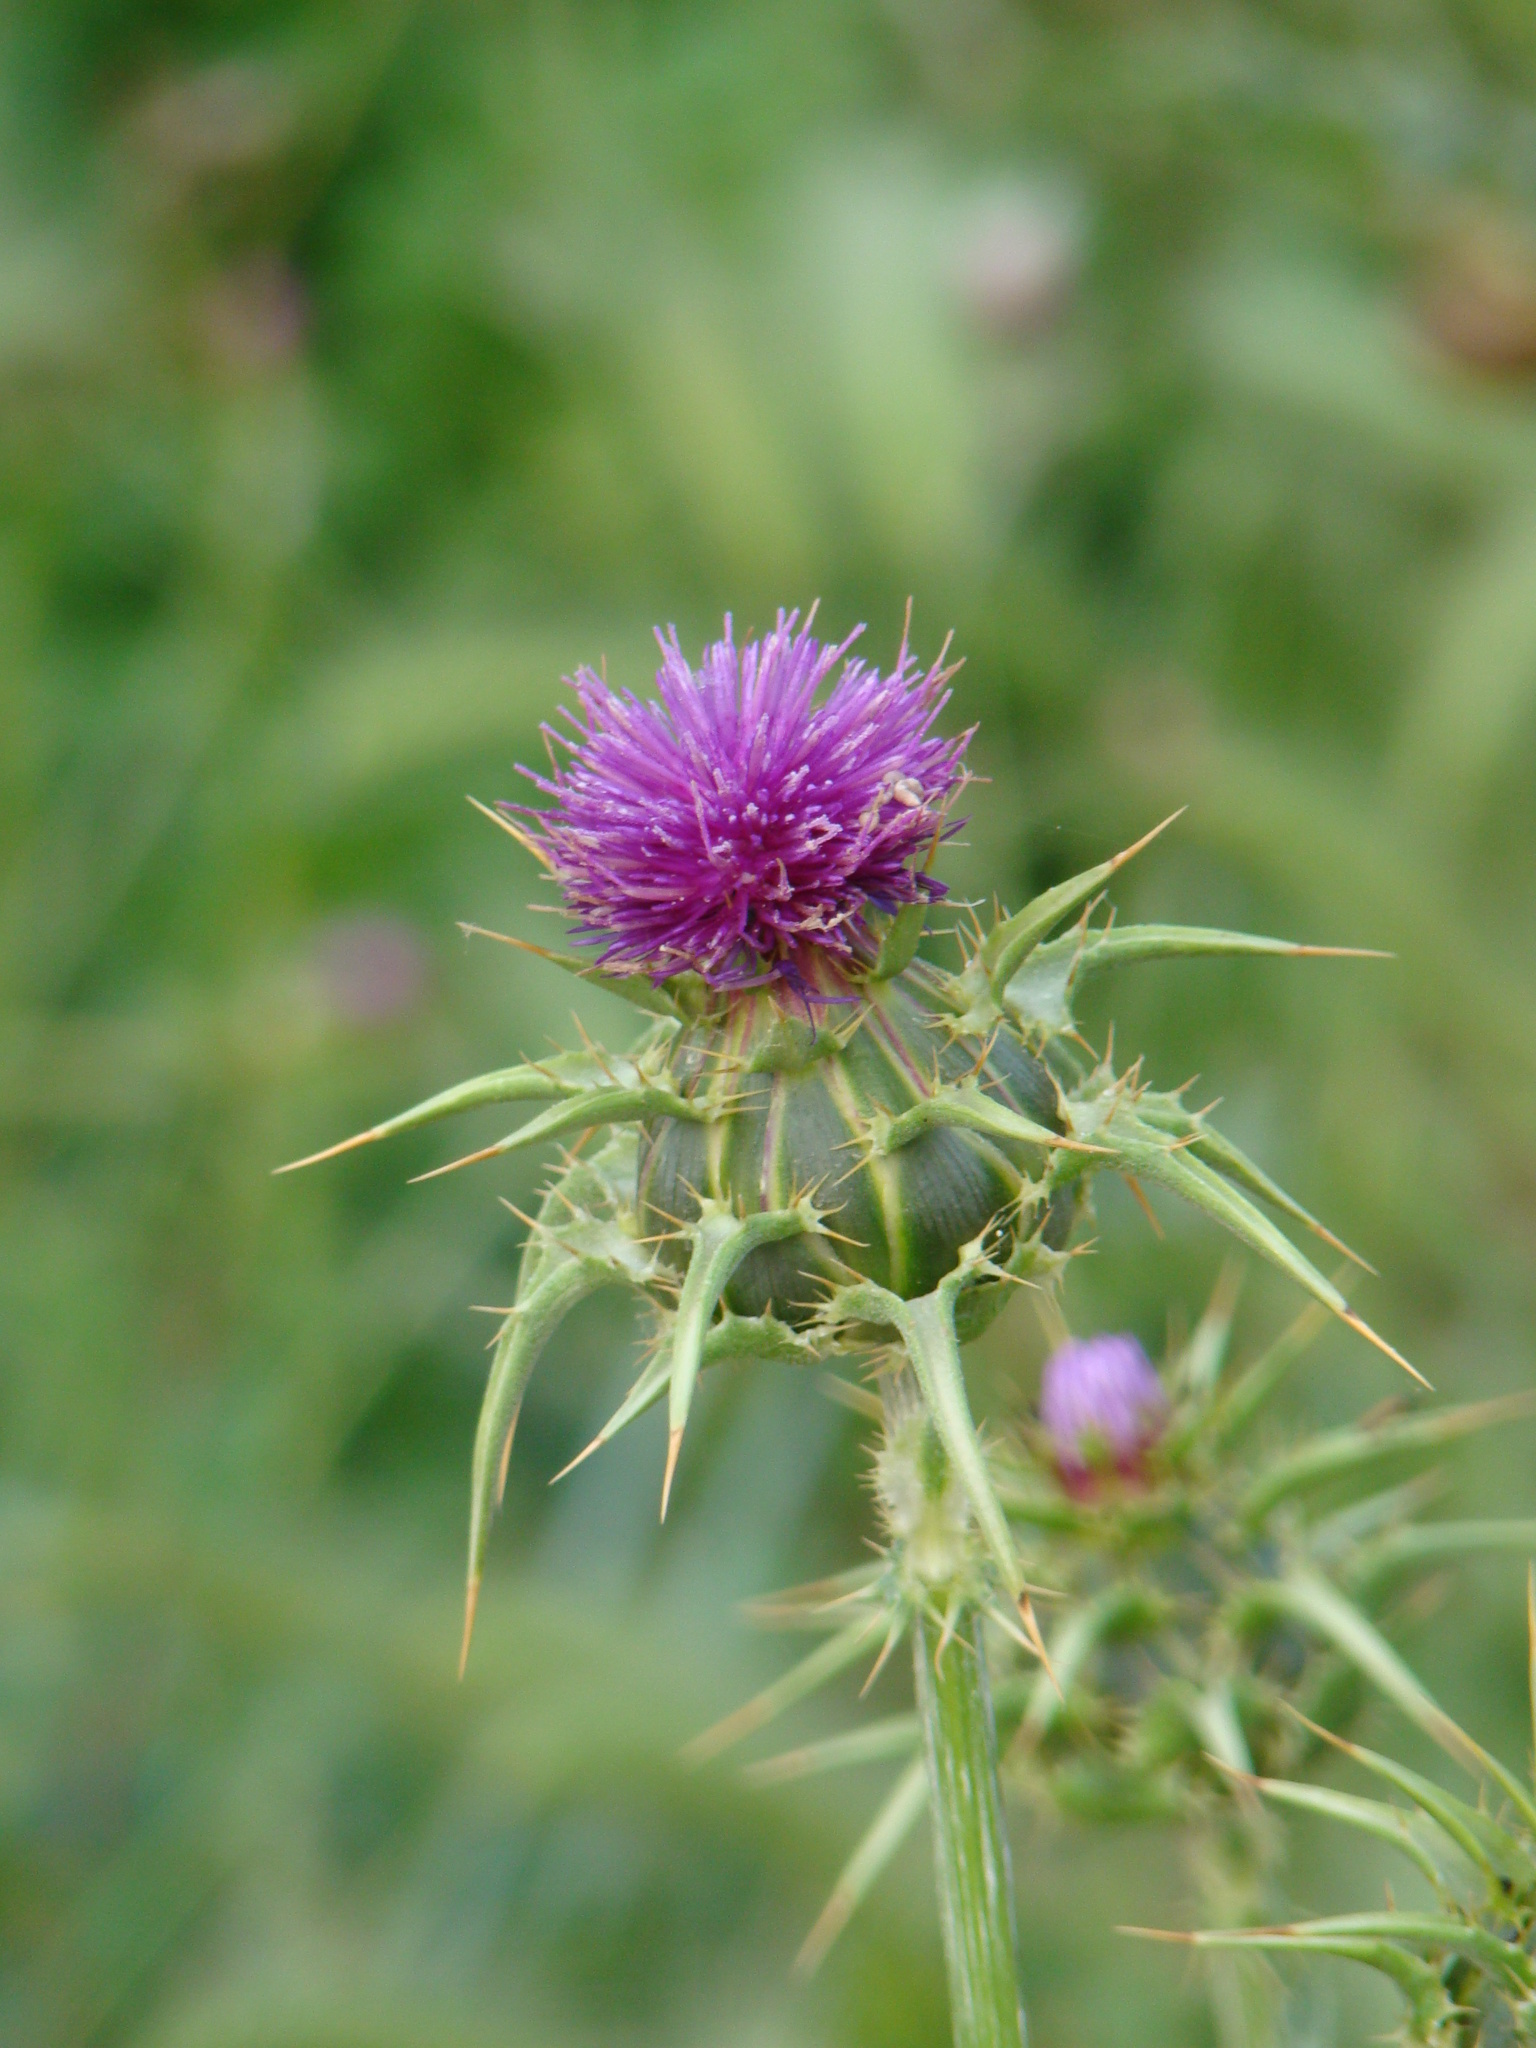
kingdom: Plantae
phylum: Tracheophyta
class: Magnoliopsida
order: Asterales
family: Asteraceae
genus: Silybum
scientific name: Silybum marianum
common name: Milk thistle
